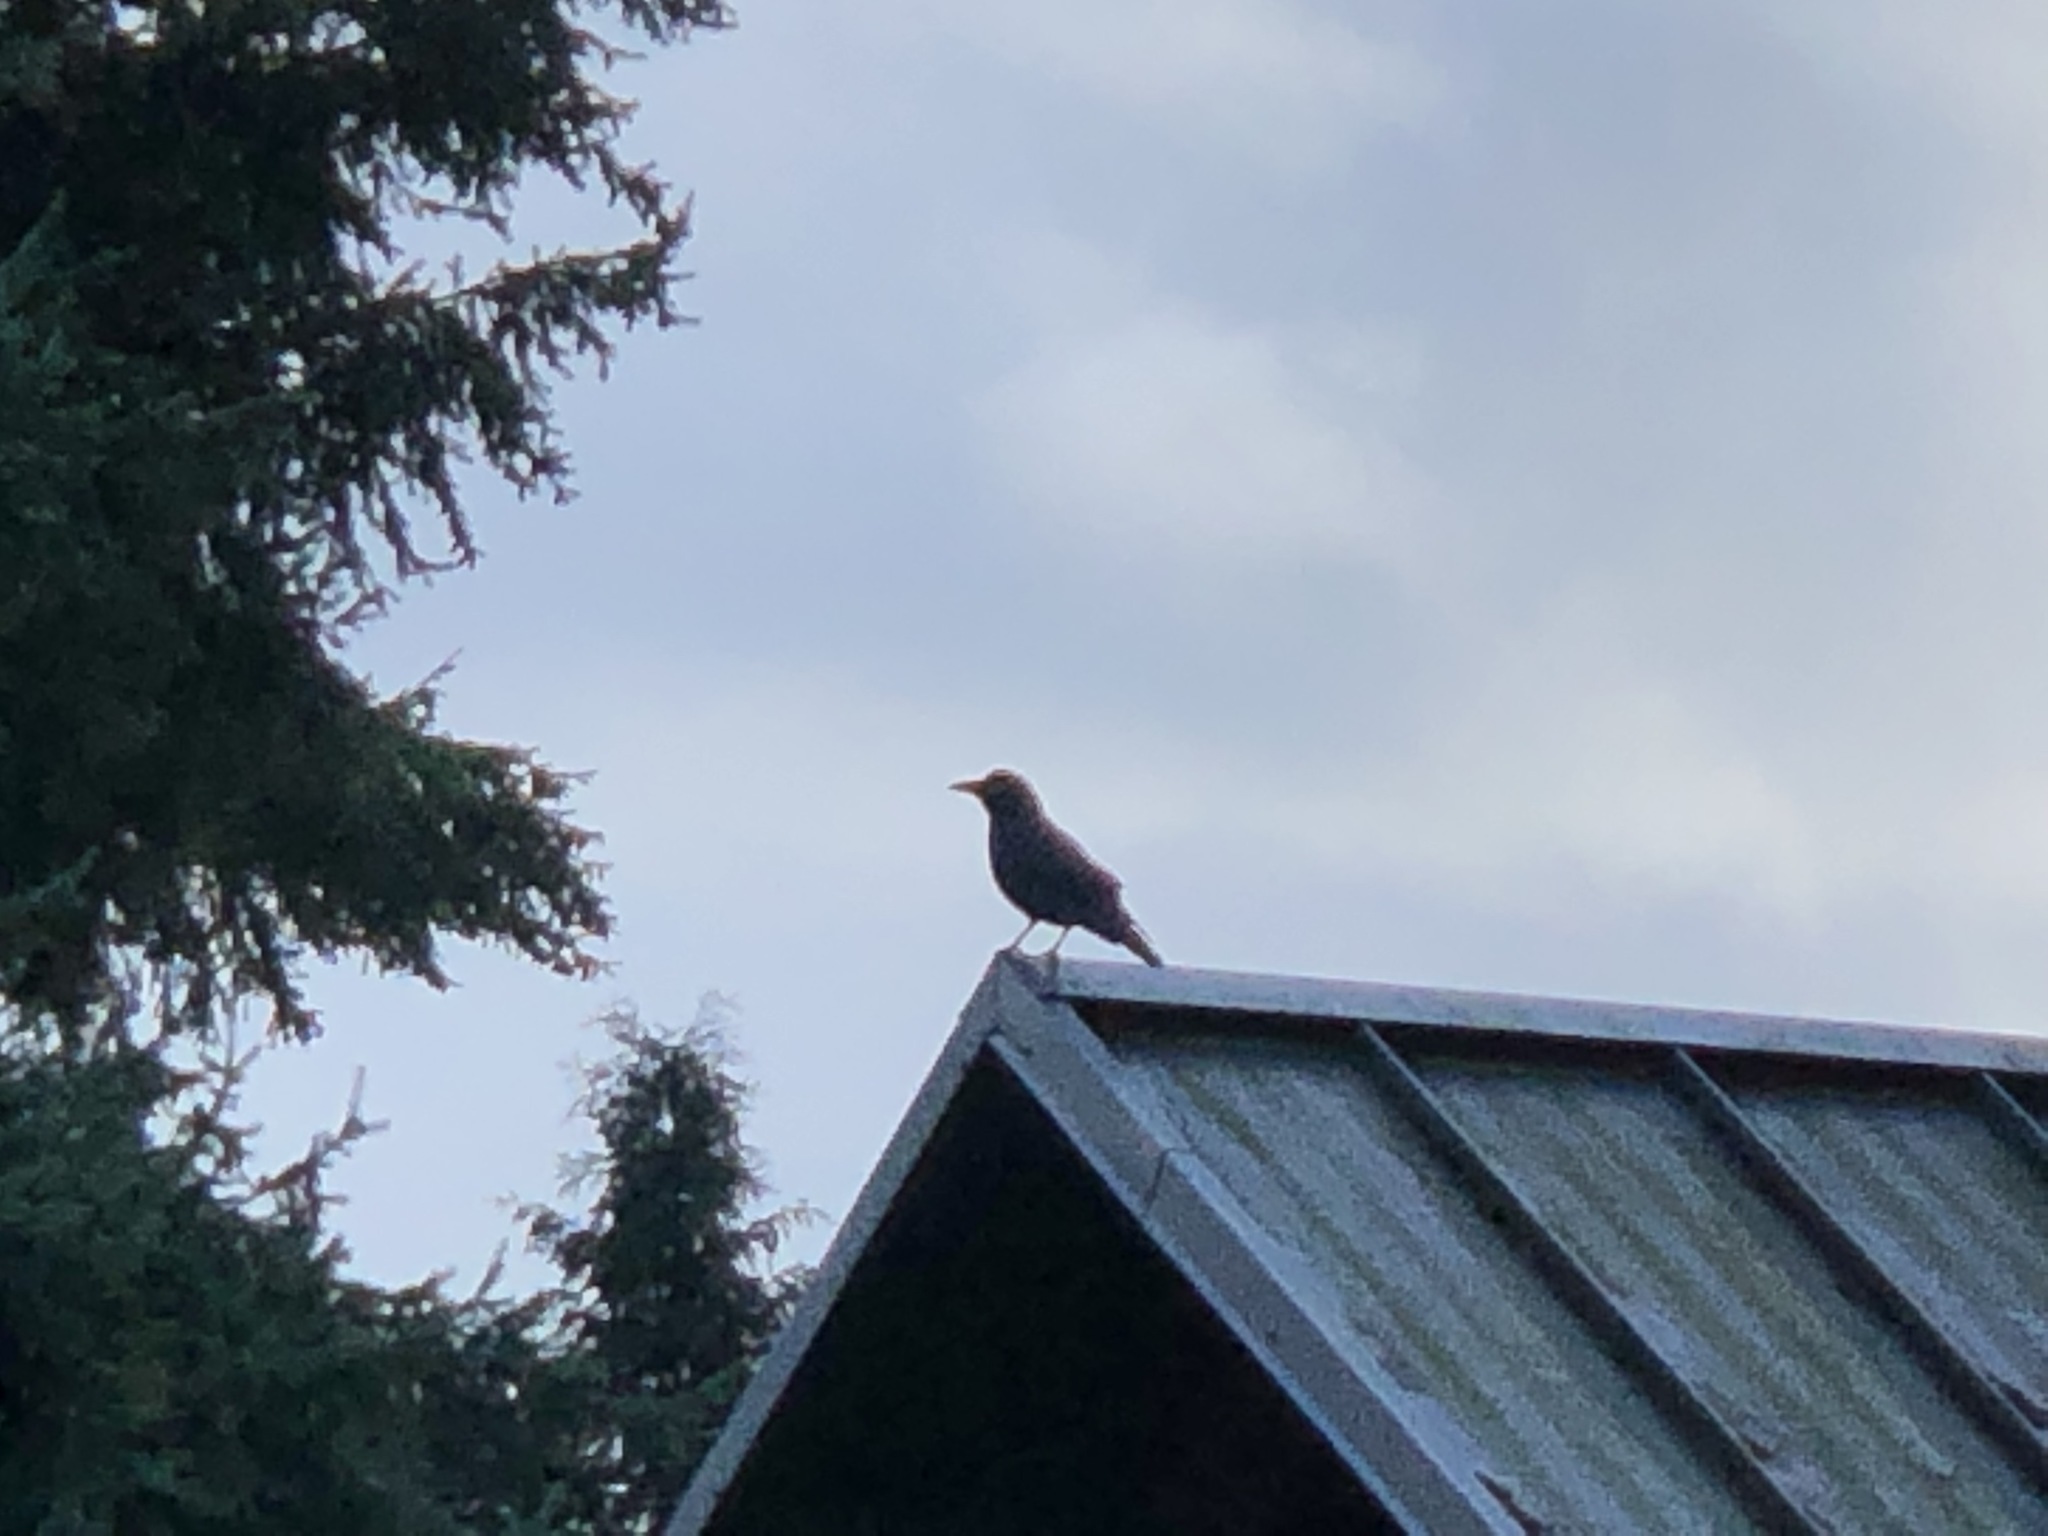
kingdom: Animalia
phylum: Chordata
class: Aves
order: Passeriformes
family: Corvidae
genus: Corvus
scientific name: Corvus brachyrhynchos
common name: American crow
